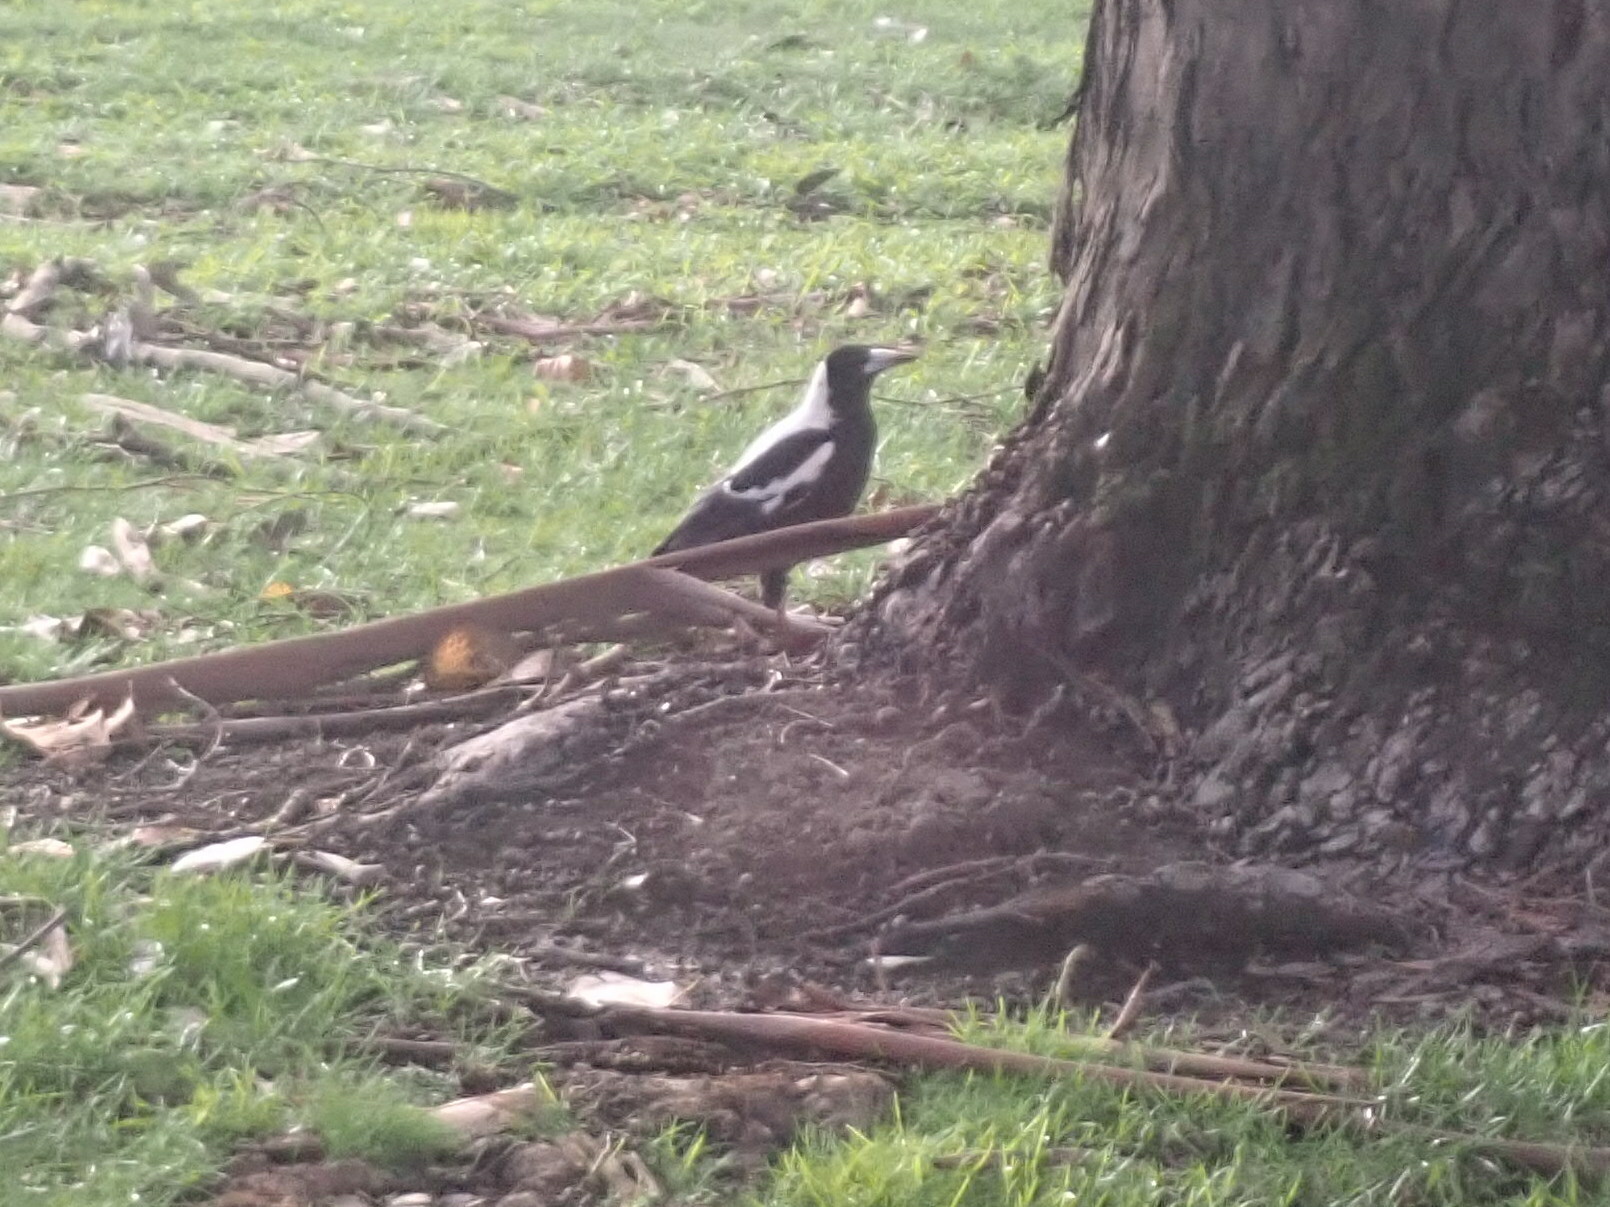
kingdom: Animalia
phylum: Chordata
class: Aves
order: Passeriformes
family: Cracticidae
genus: Gymnorhina
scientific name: Gymnorhina tibicen
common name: Australian magpie
